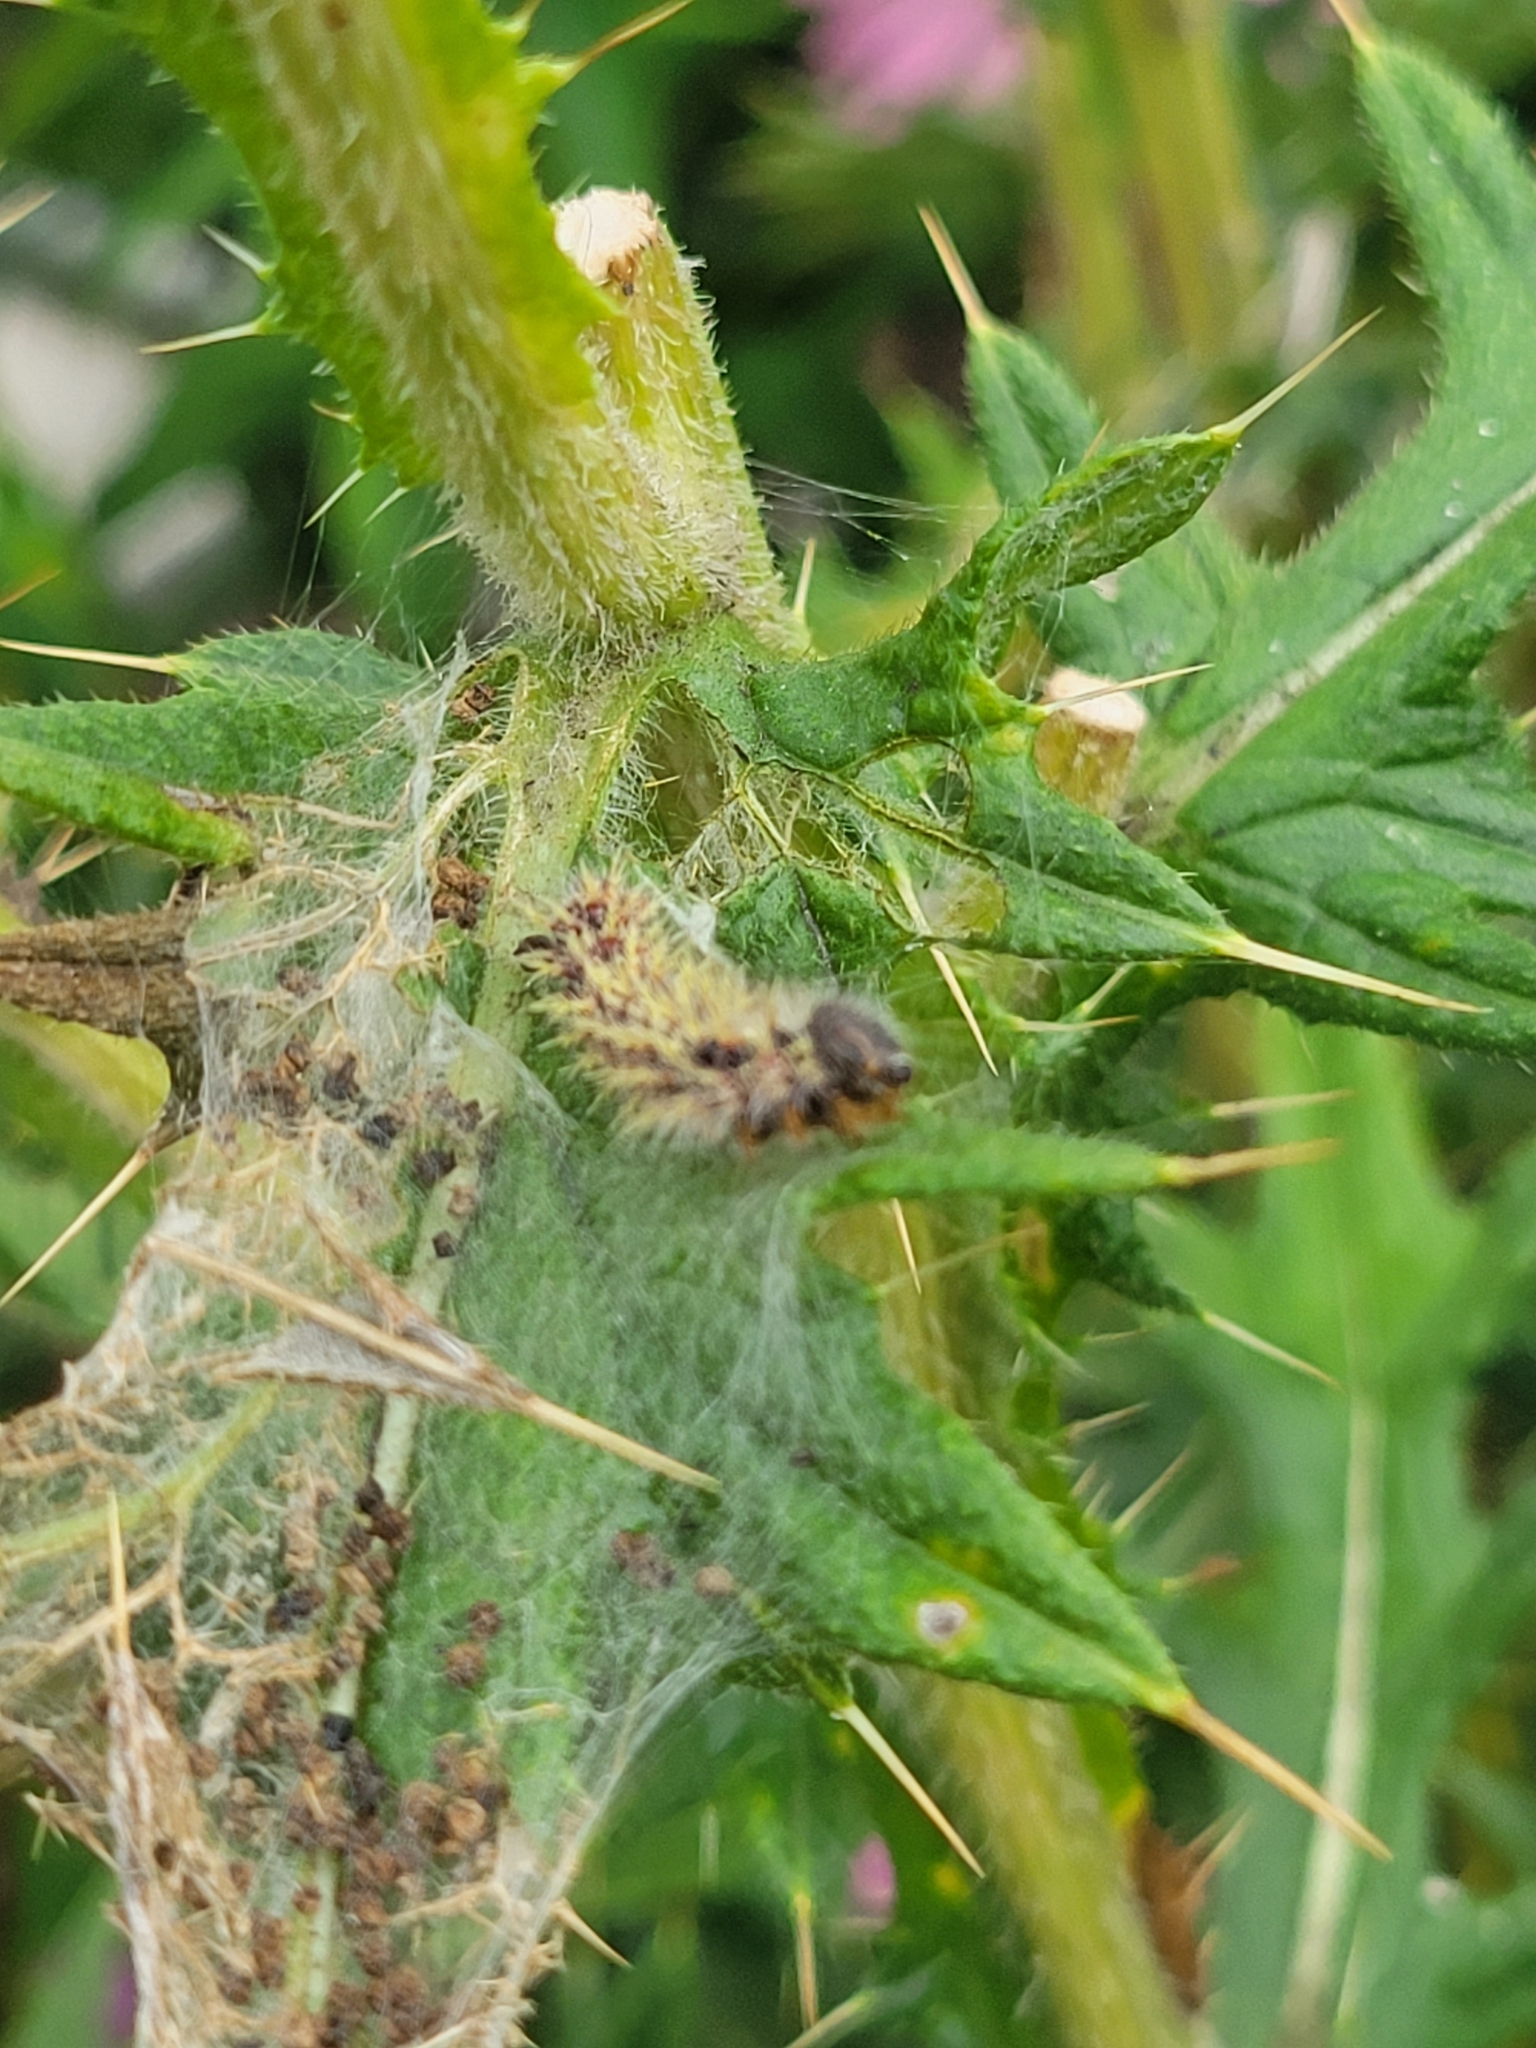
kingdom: Animalia
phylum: Arthropoda
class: Insecta
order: Lepidoptera
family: Nymphalidae
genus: Vanessa
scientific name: Vanessa cardui
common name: Painted lady
